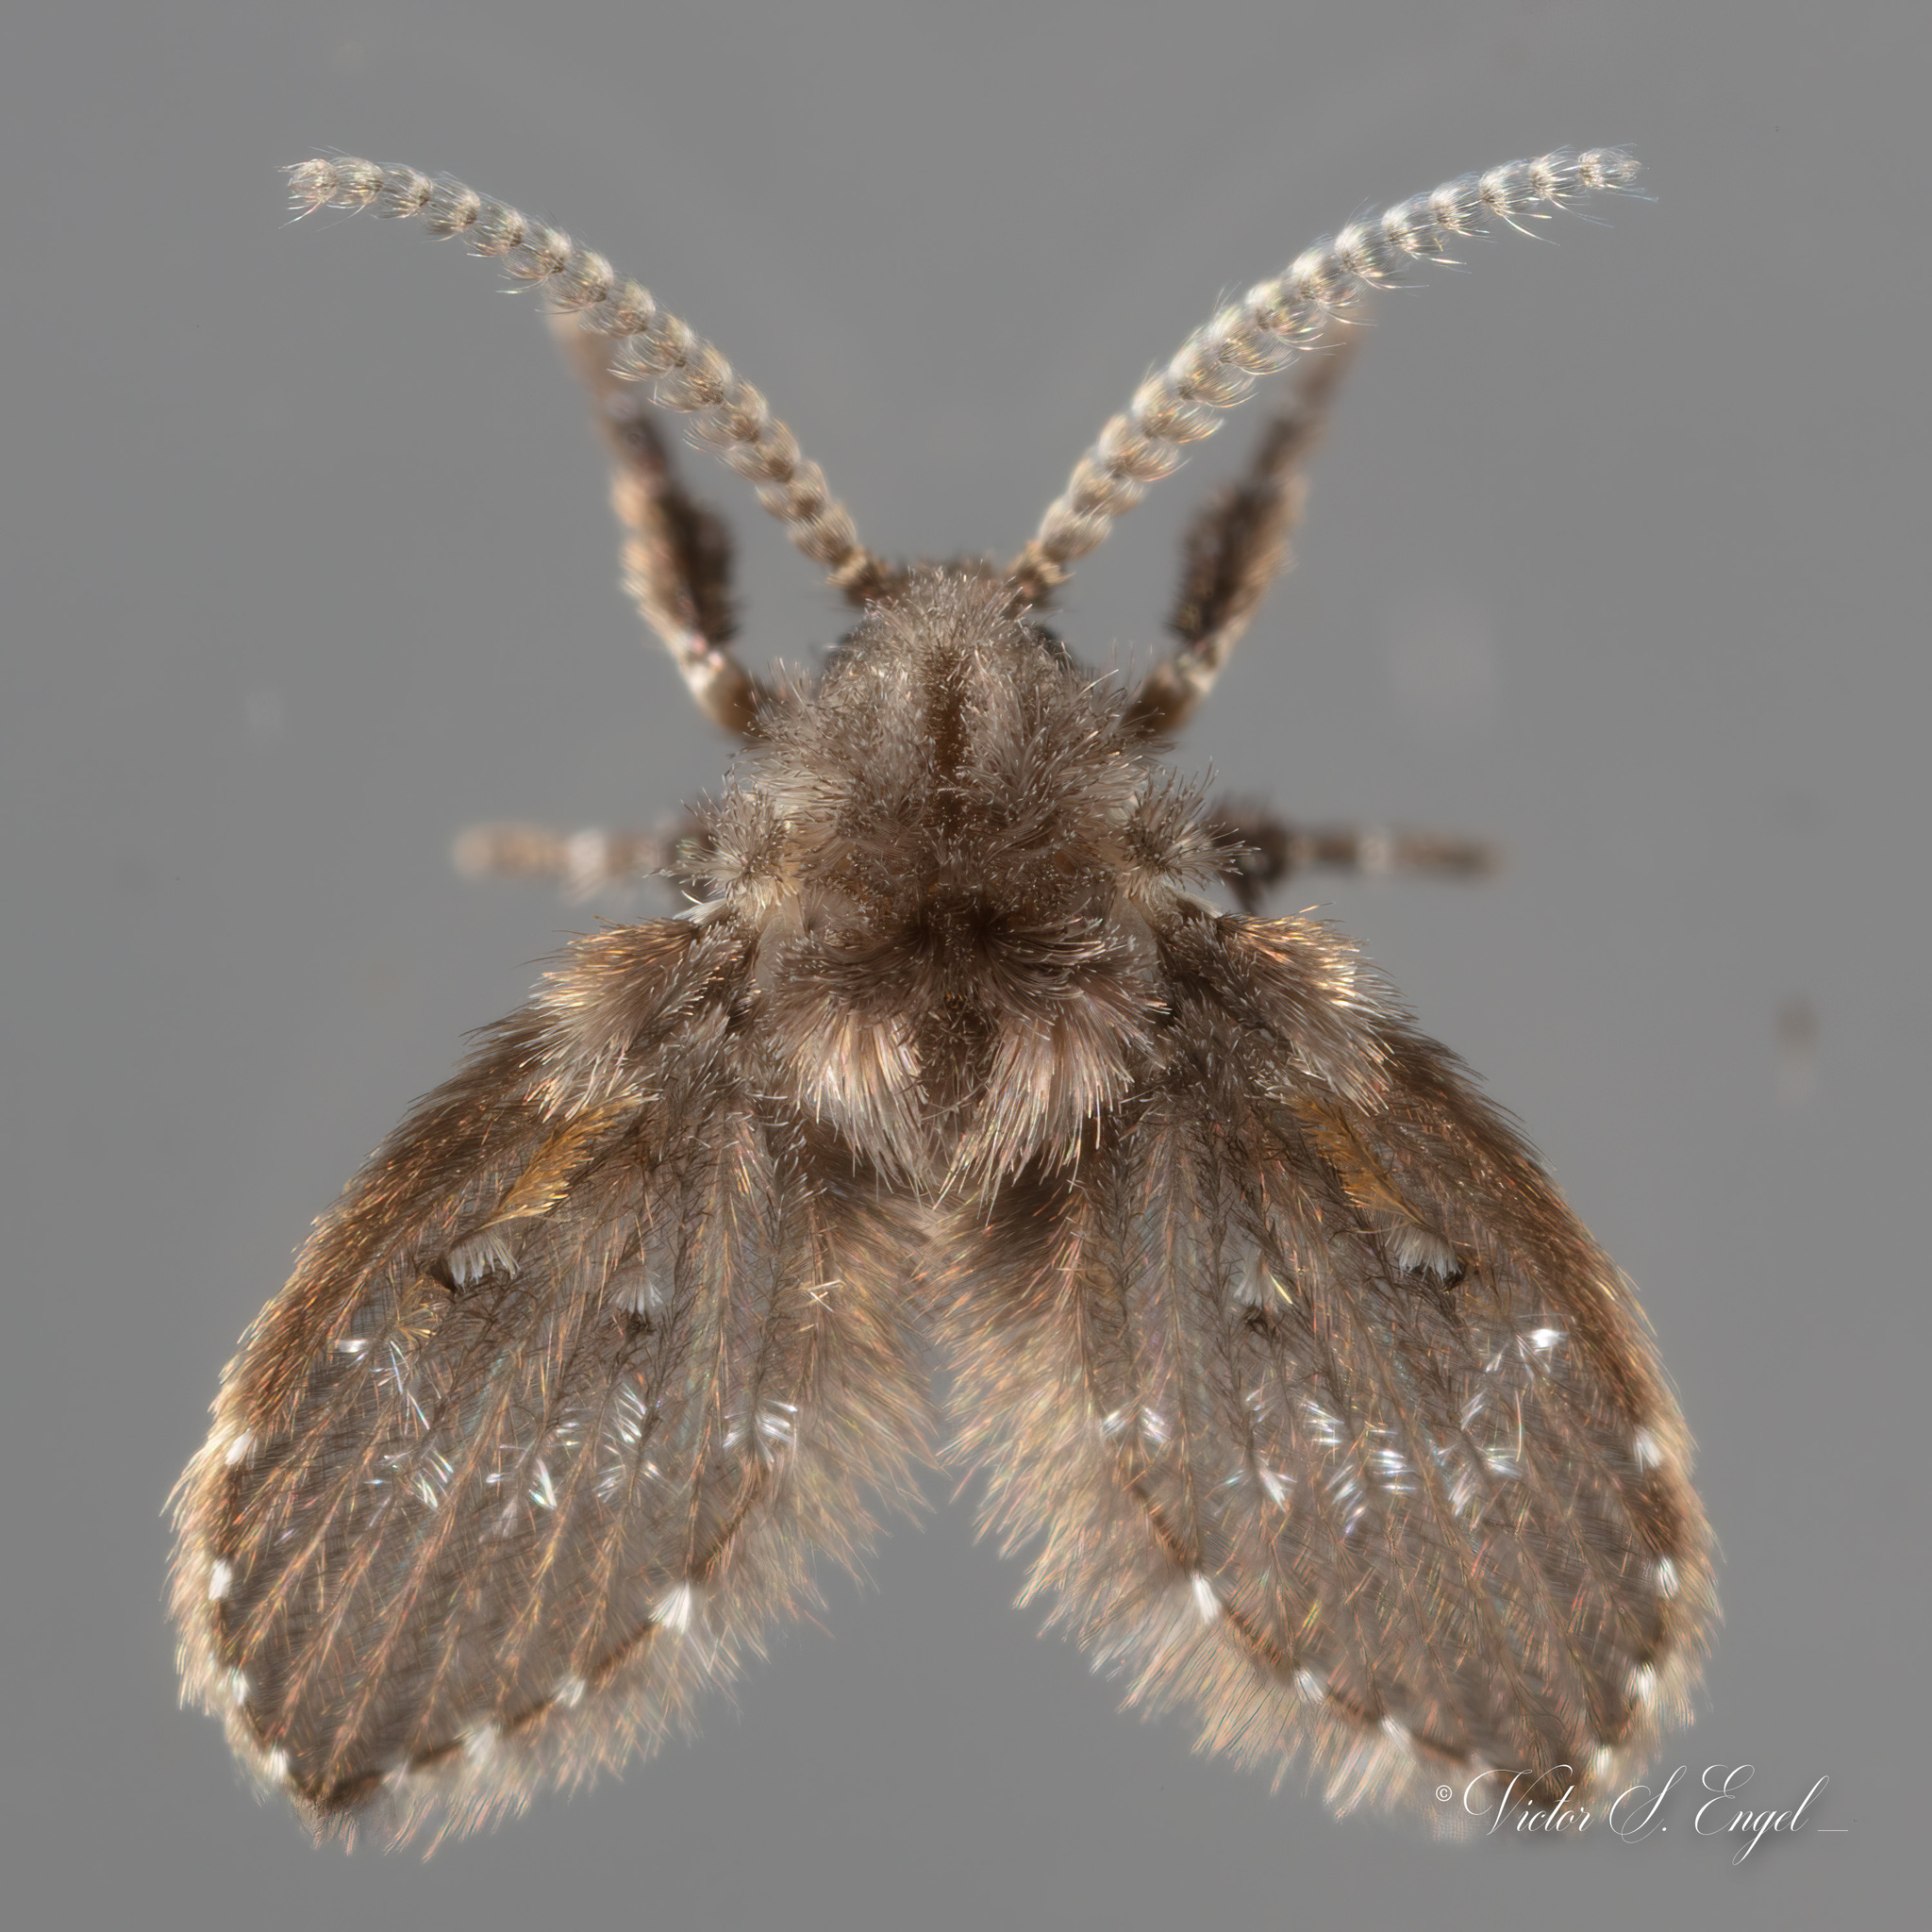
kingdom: Animalia
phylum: Arthropoda
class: Insecta
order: Diptera
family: Psychodidae
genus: Clogmia
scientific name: Clogmia albipunctatus
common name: White-spotted moth fly
